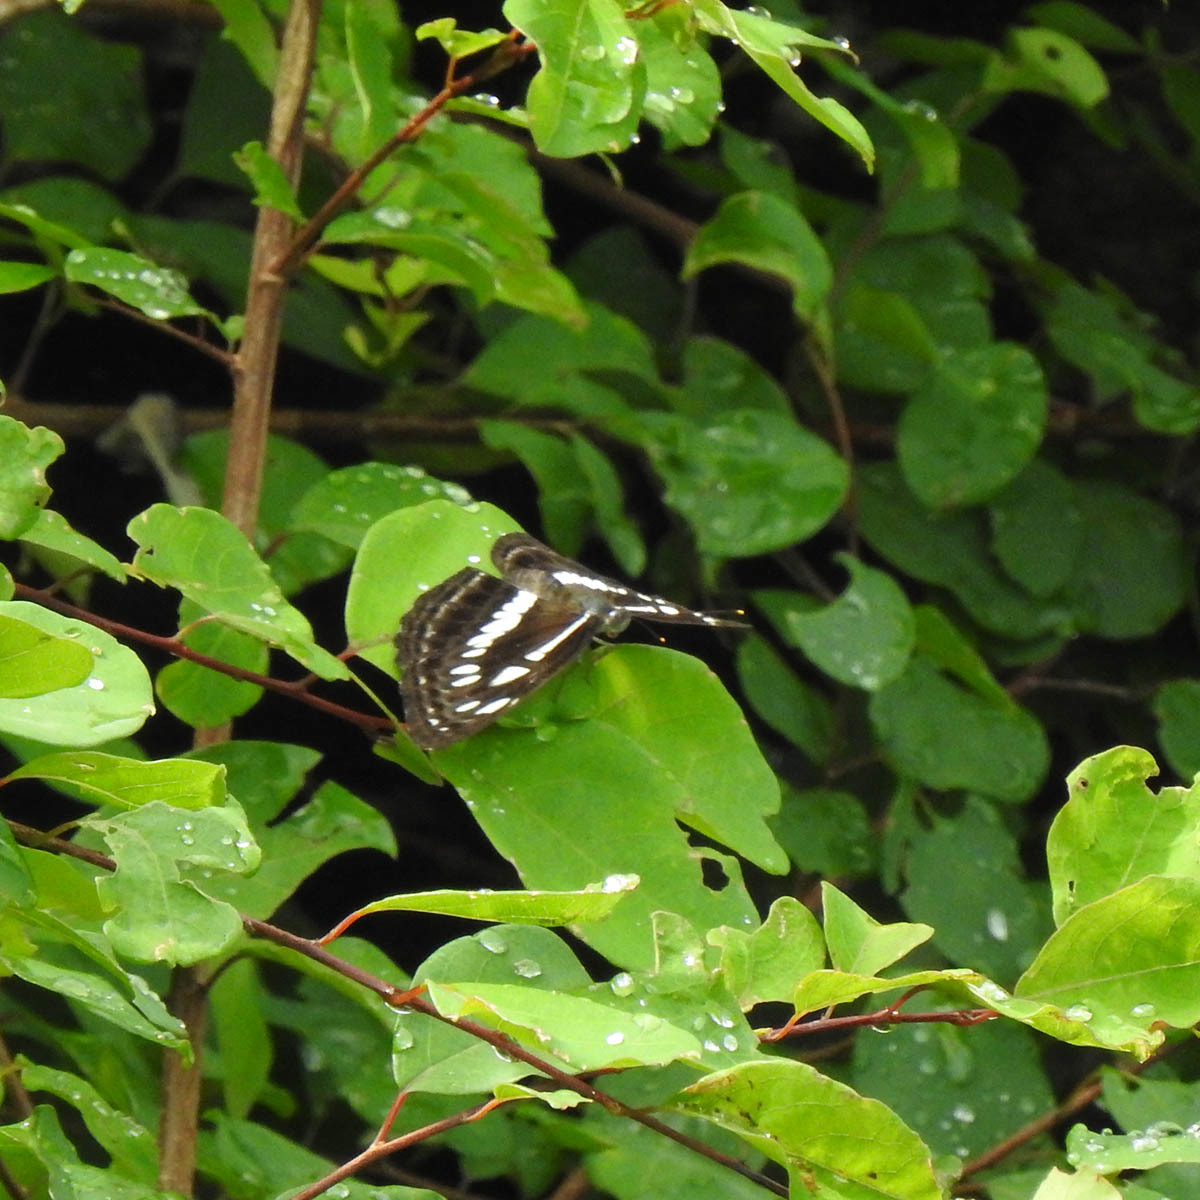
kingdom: Animalia
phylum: Arthropoda
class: Insecta
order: Lepidoptera
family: Nymphalidae
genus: Neptis
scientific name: Neptis jumbah
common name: Chestnut-streaked sailer
